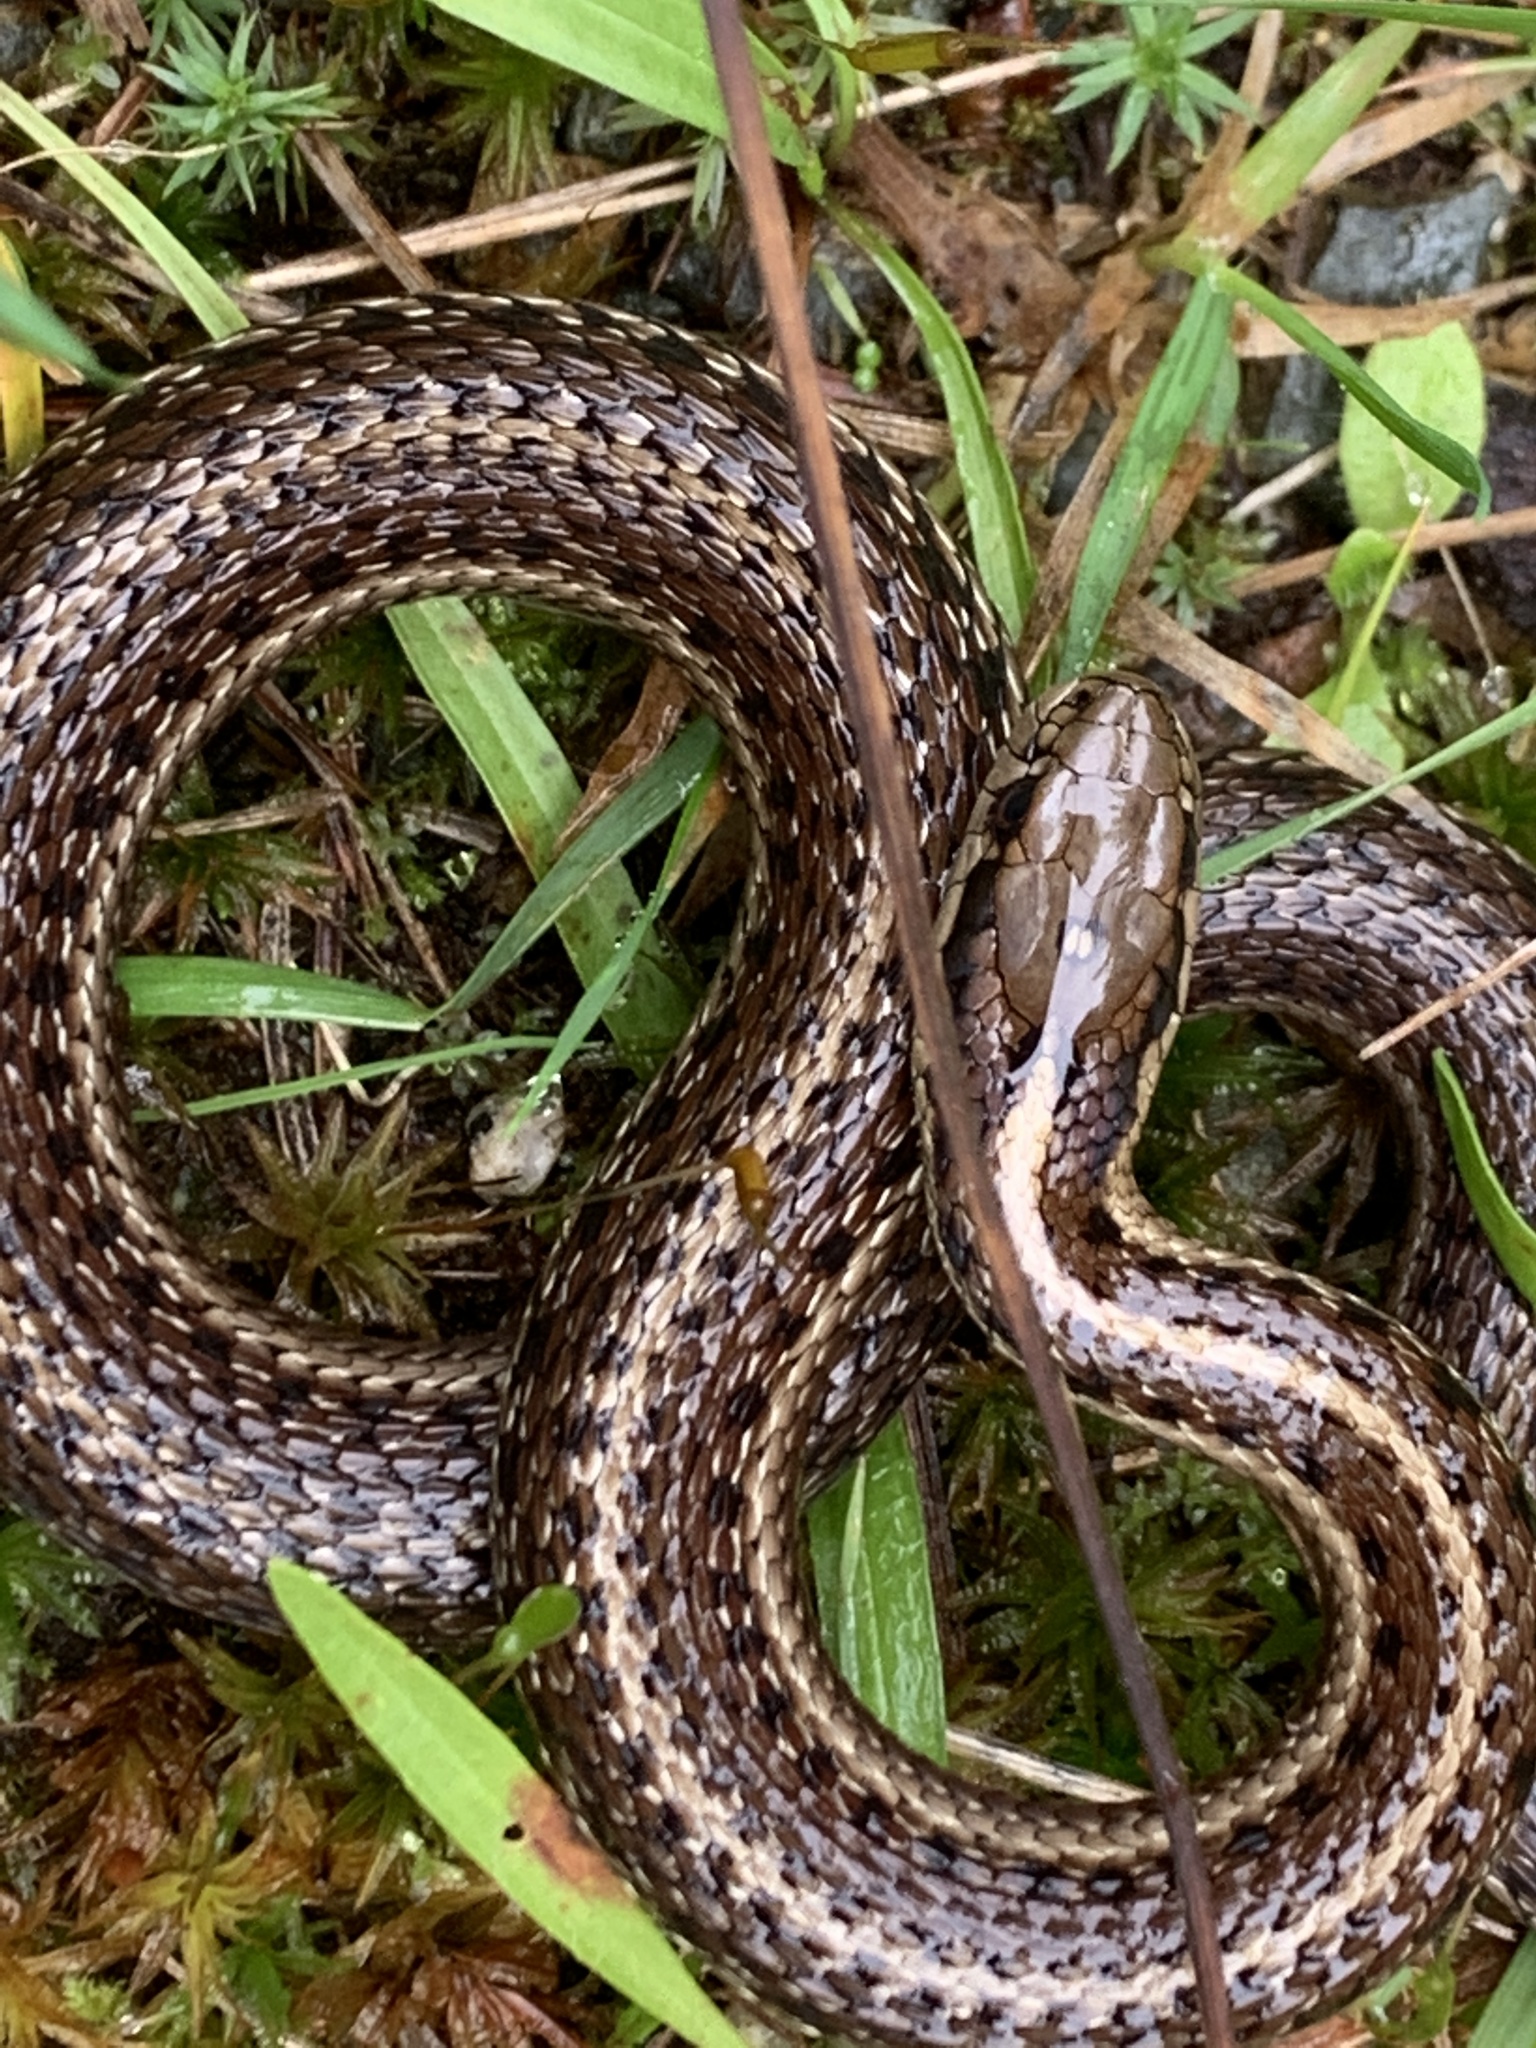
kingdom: Animalia
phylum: Chordata
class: Squamata
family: Colubridae
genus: Thamnophis
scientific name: Thamnophis ordinoides
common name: Northwestern garter snake
